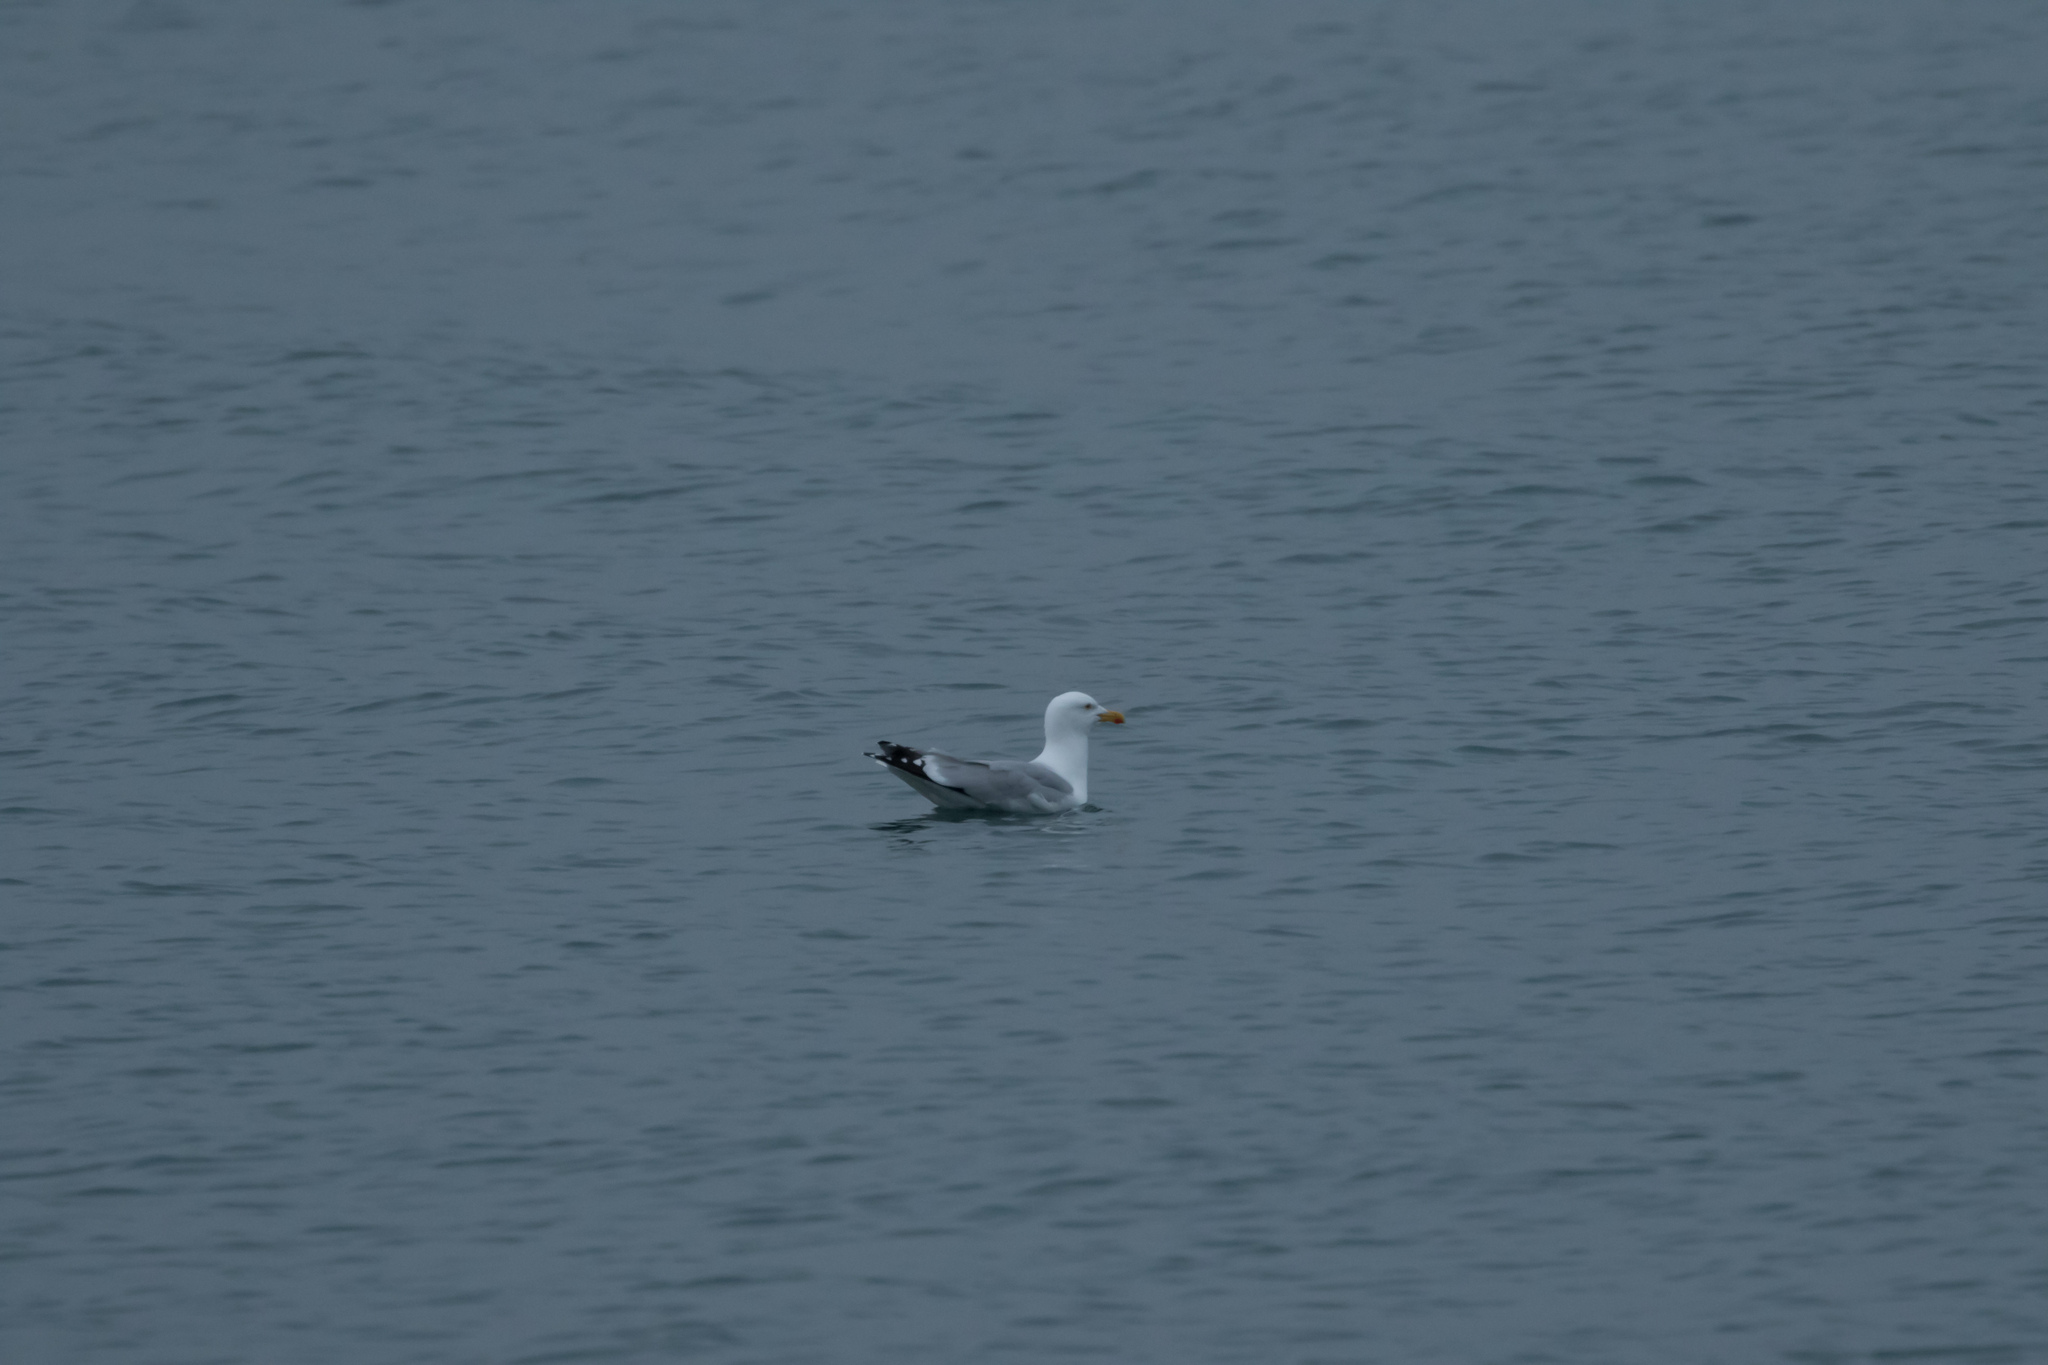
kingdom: Animalia
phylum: Chordata
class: Aves
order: Charadriiformes
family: Laridae
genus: Larus
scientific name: Larus argentatus
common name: Herring gull
